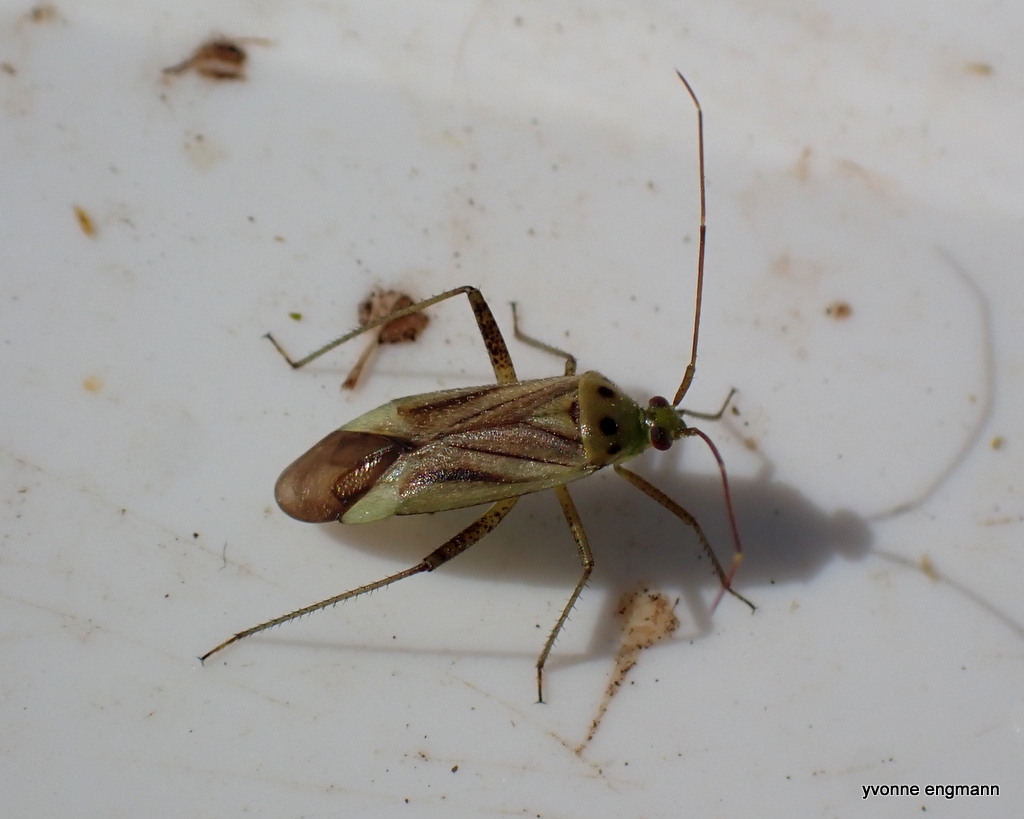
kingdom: Animalia
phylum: Arthropoda
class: Insecta
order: Hemiptera
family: Miridae
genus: Adelphocoris
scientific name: Adelphocoris quadripunctatus
